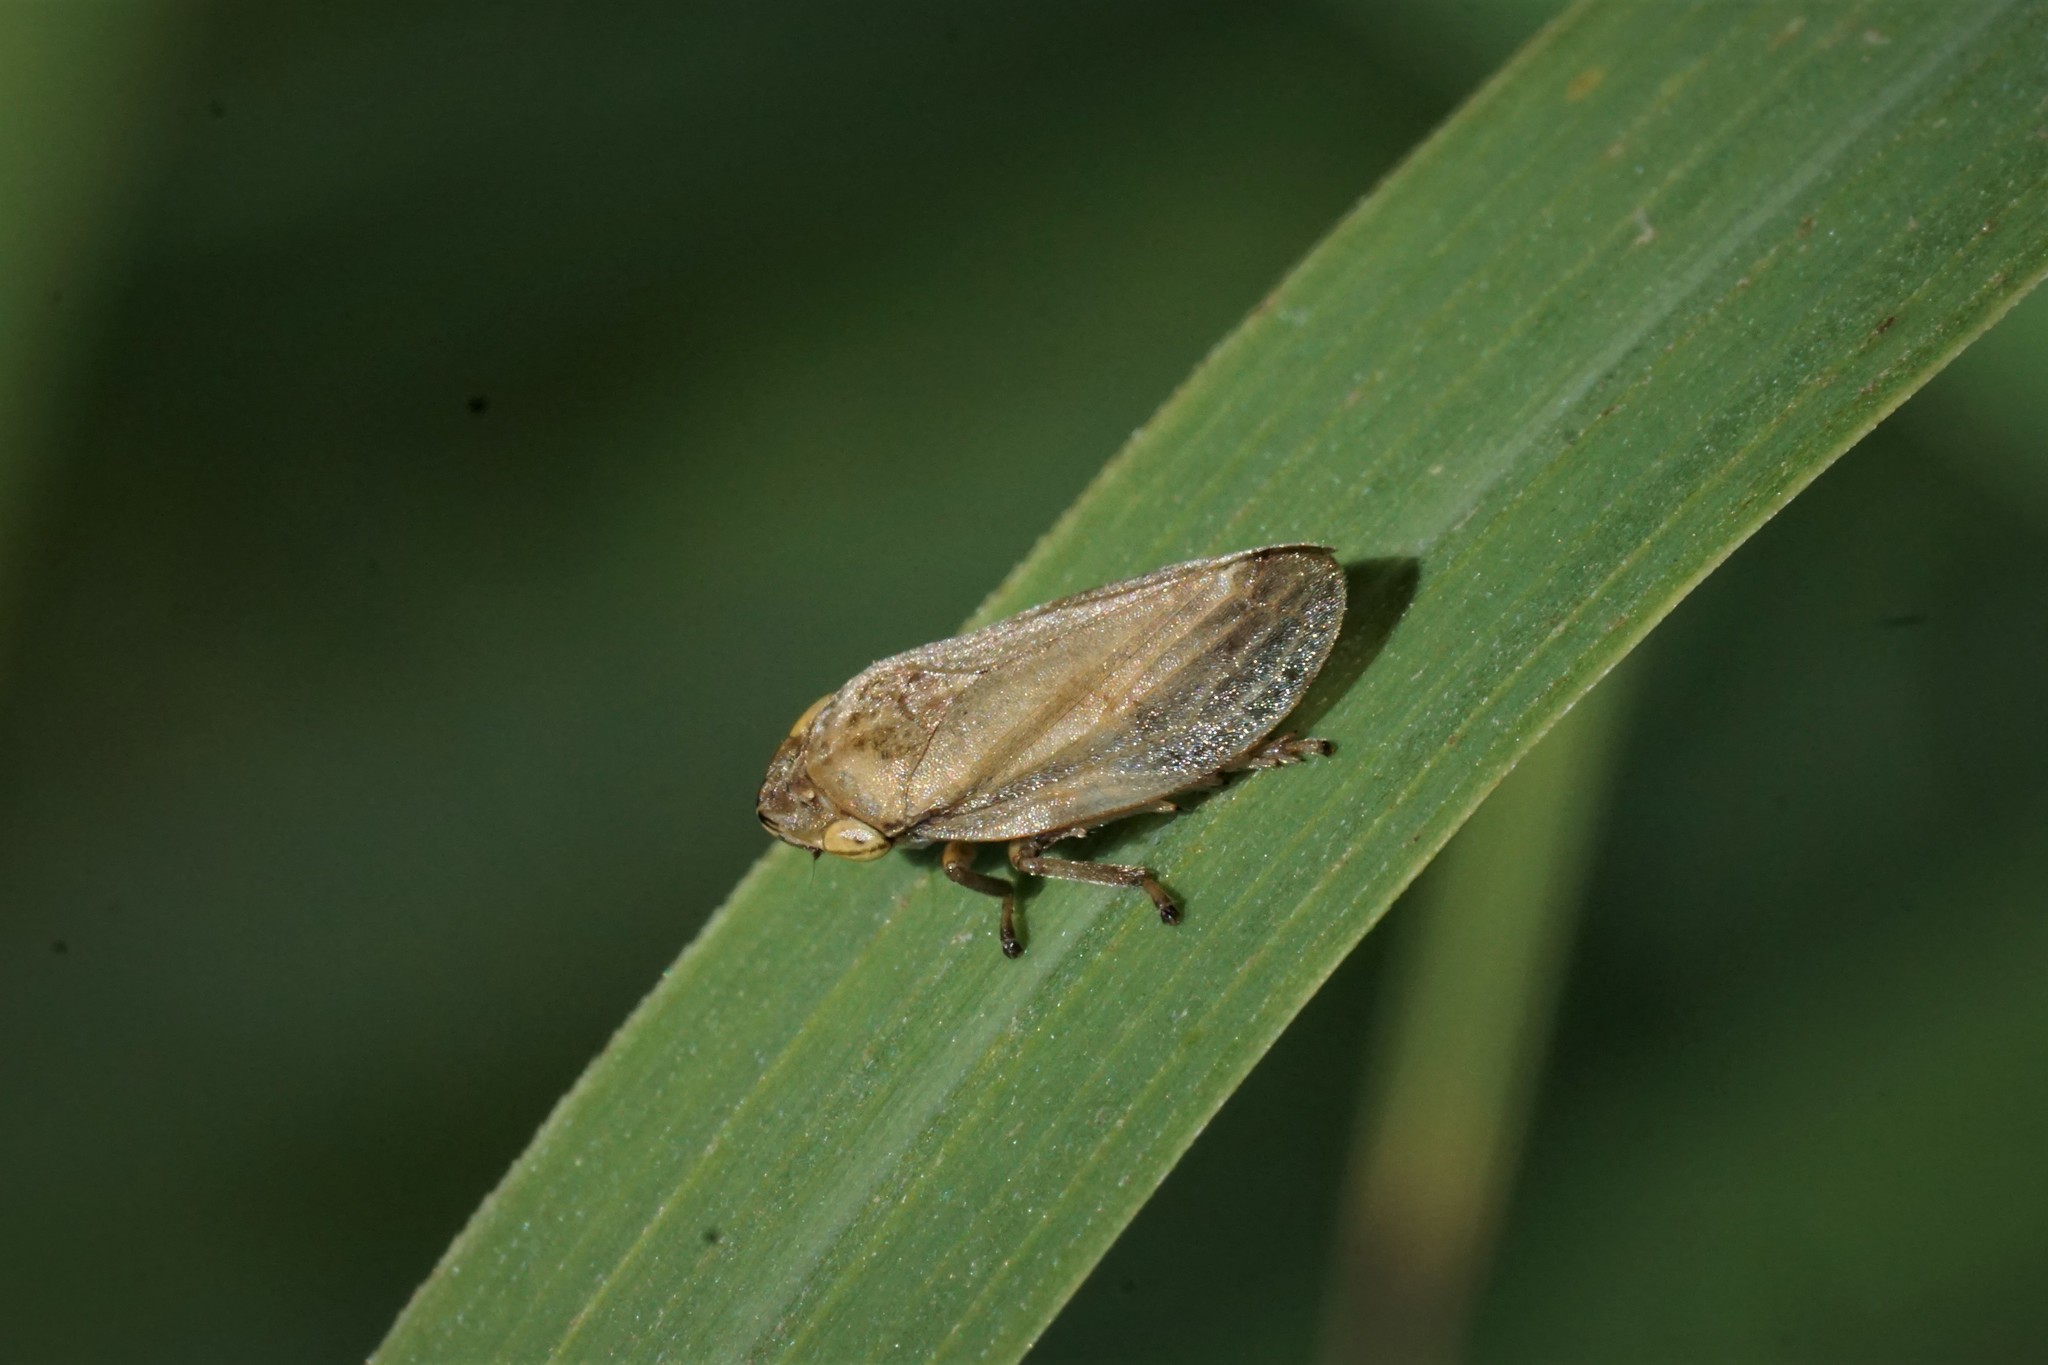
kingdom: Animalia
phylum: Arthropoda
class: Insecta
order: Hemiptera
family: Aphrophoridae
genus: Philaenus
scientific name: Philaenus spumarius
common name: Meadow spittlebug
